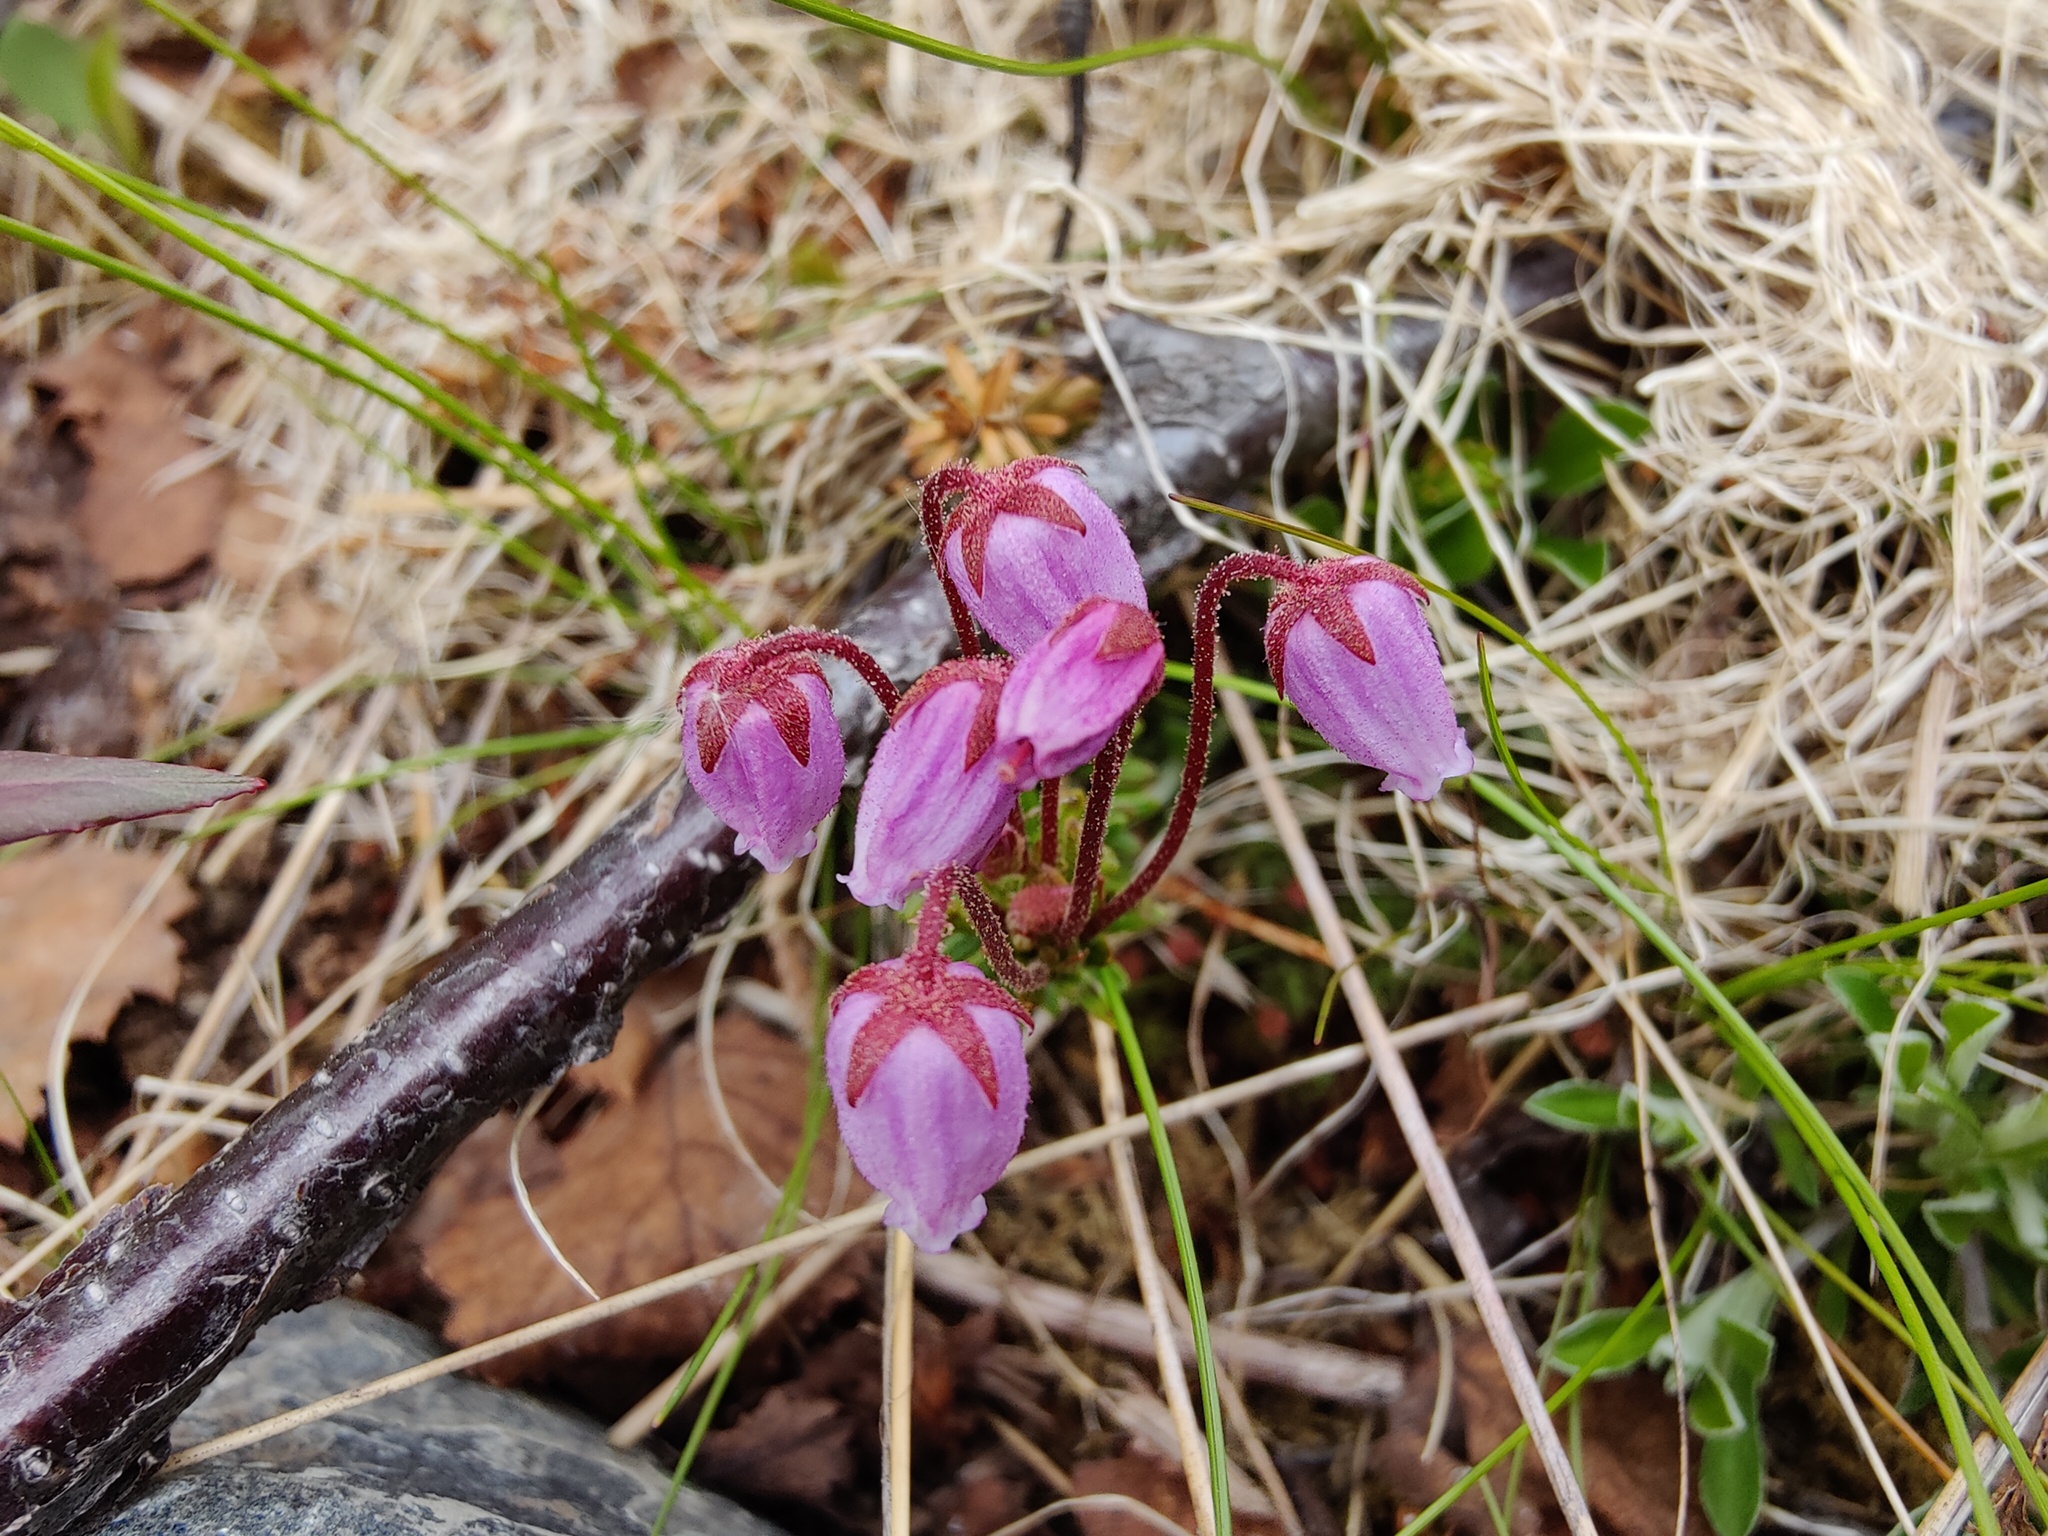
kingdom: Plantae
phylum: Tracheophyta
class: Magnoliopsida
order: Ericales
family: Ericaceae
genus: Phyllodoce
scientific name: Phyllodoce caerulea
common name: Blue heath
